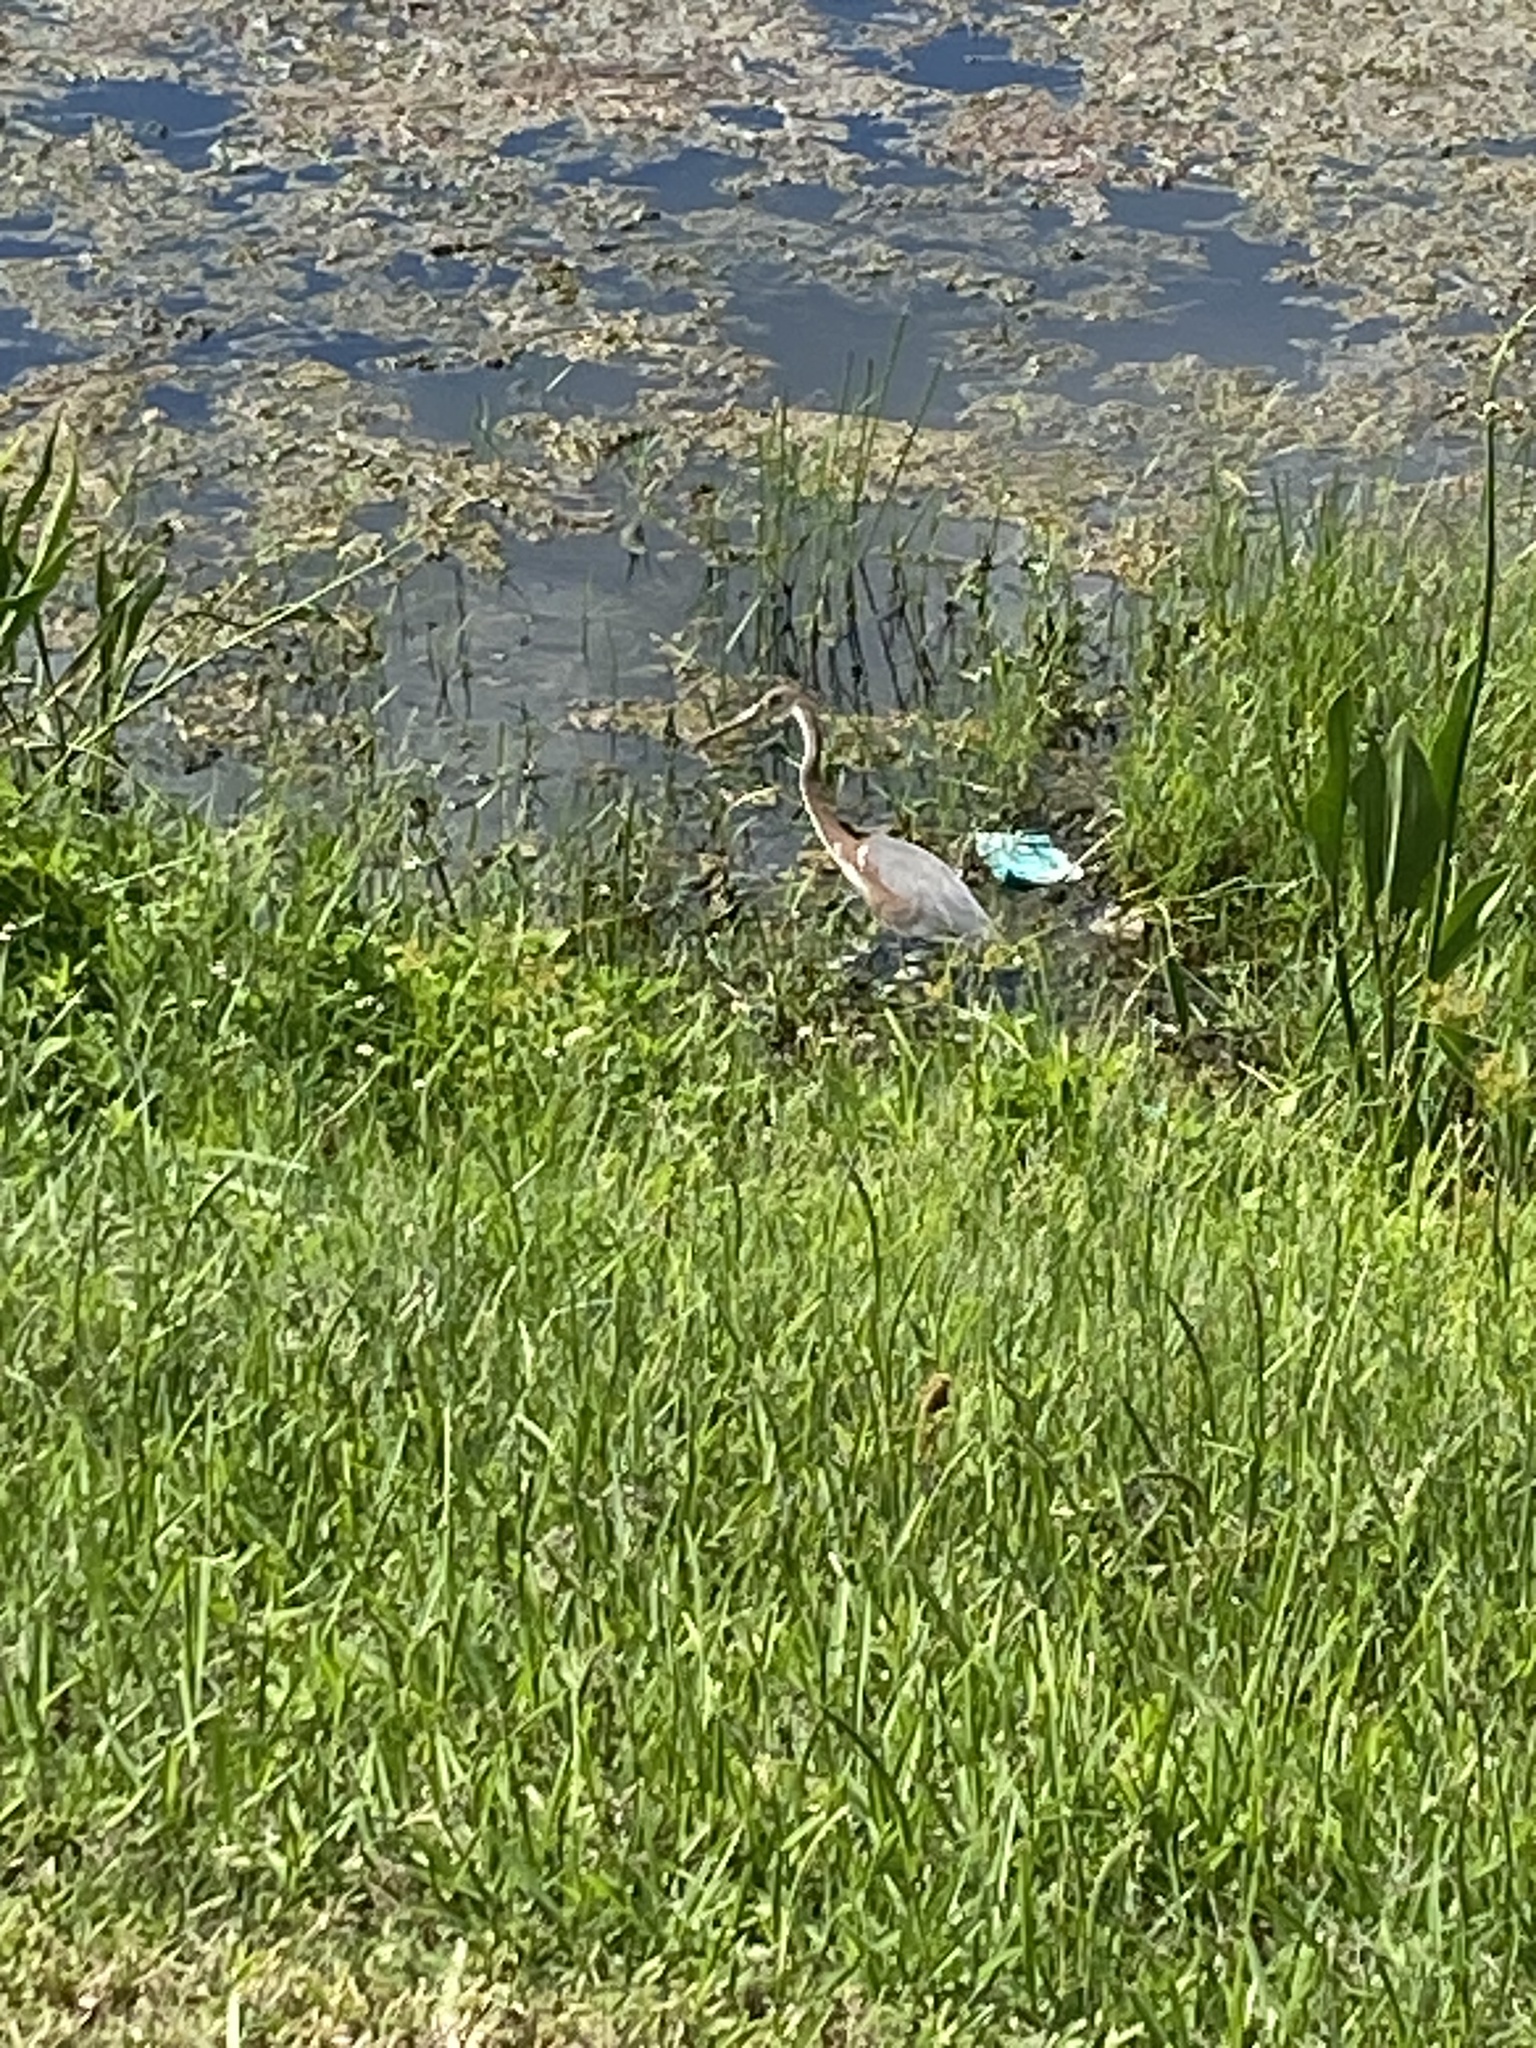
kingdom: Animalia
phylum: Chordata
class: Aves
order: Pelecaniformes
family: Ardeidae
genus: Egretta
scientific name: Egretta tricolor
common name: Tricolored heron
